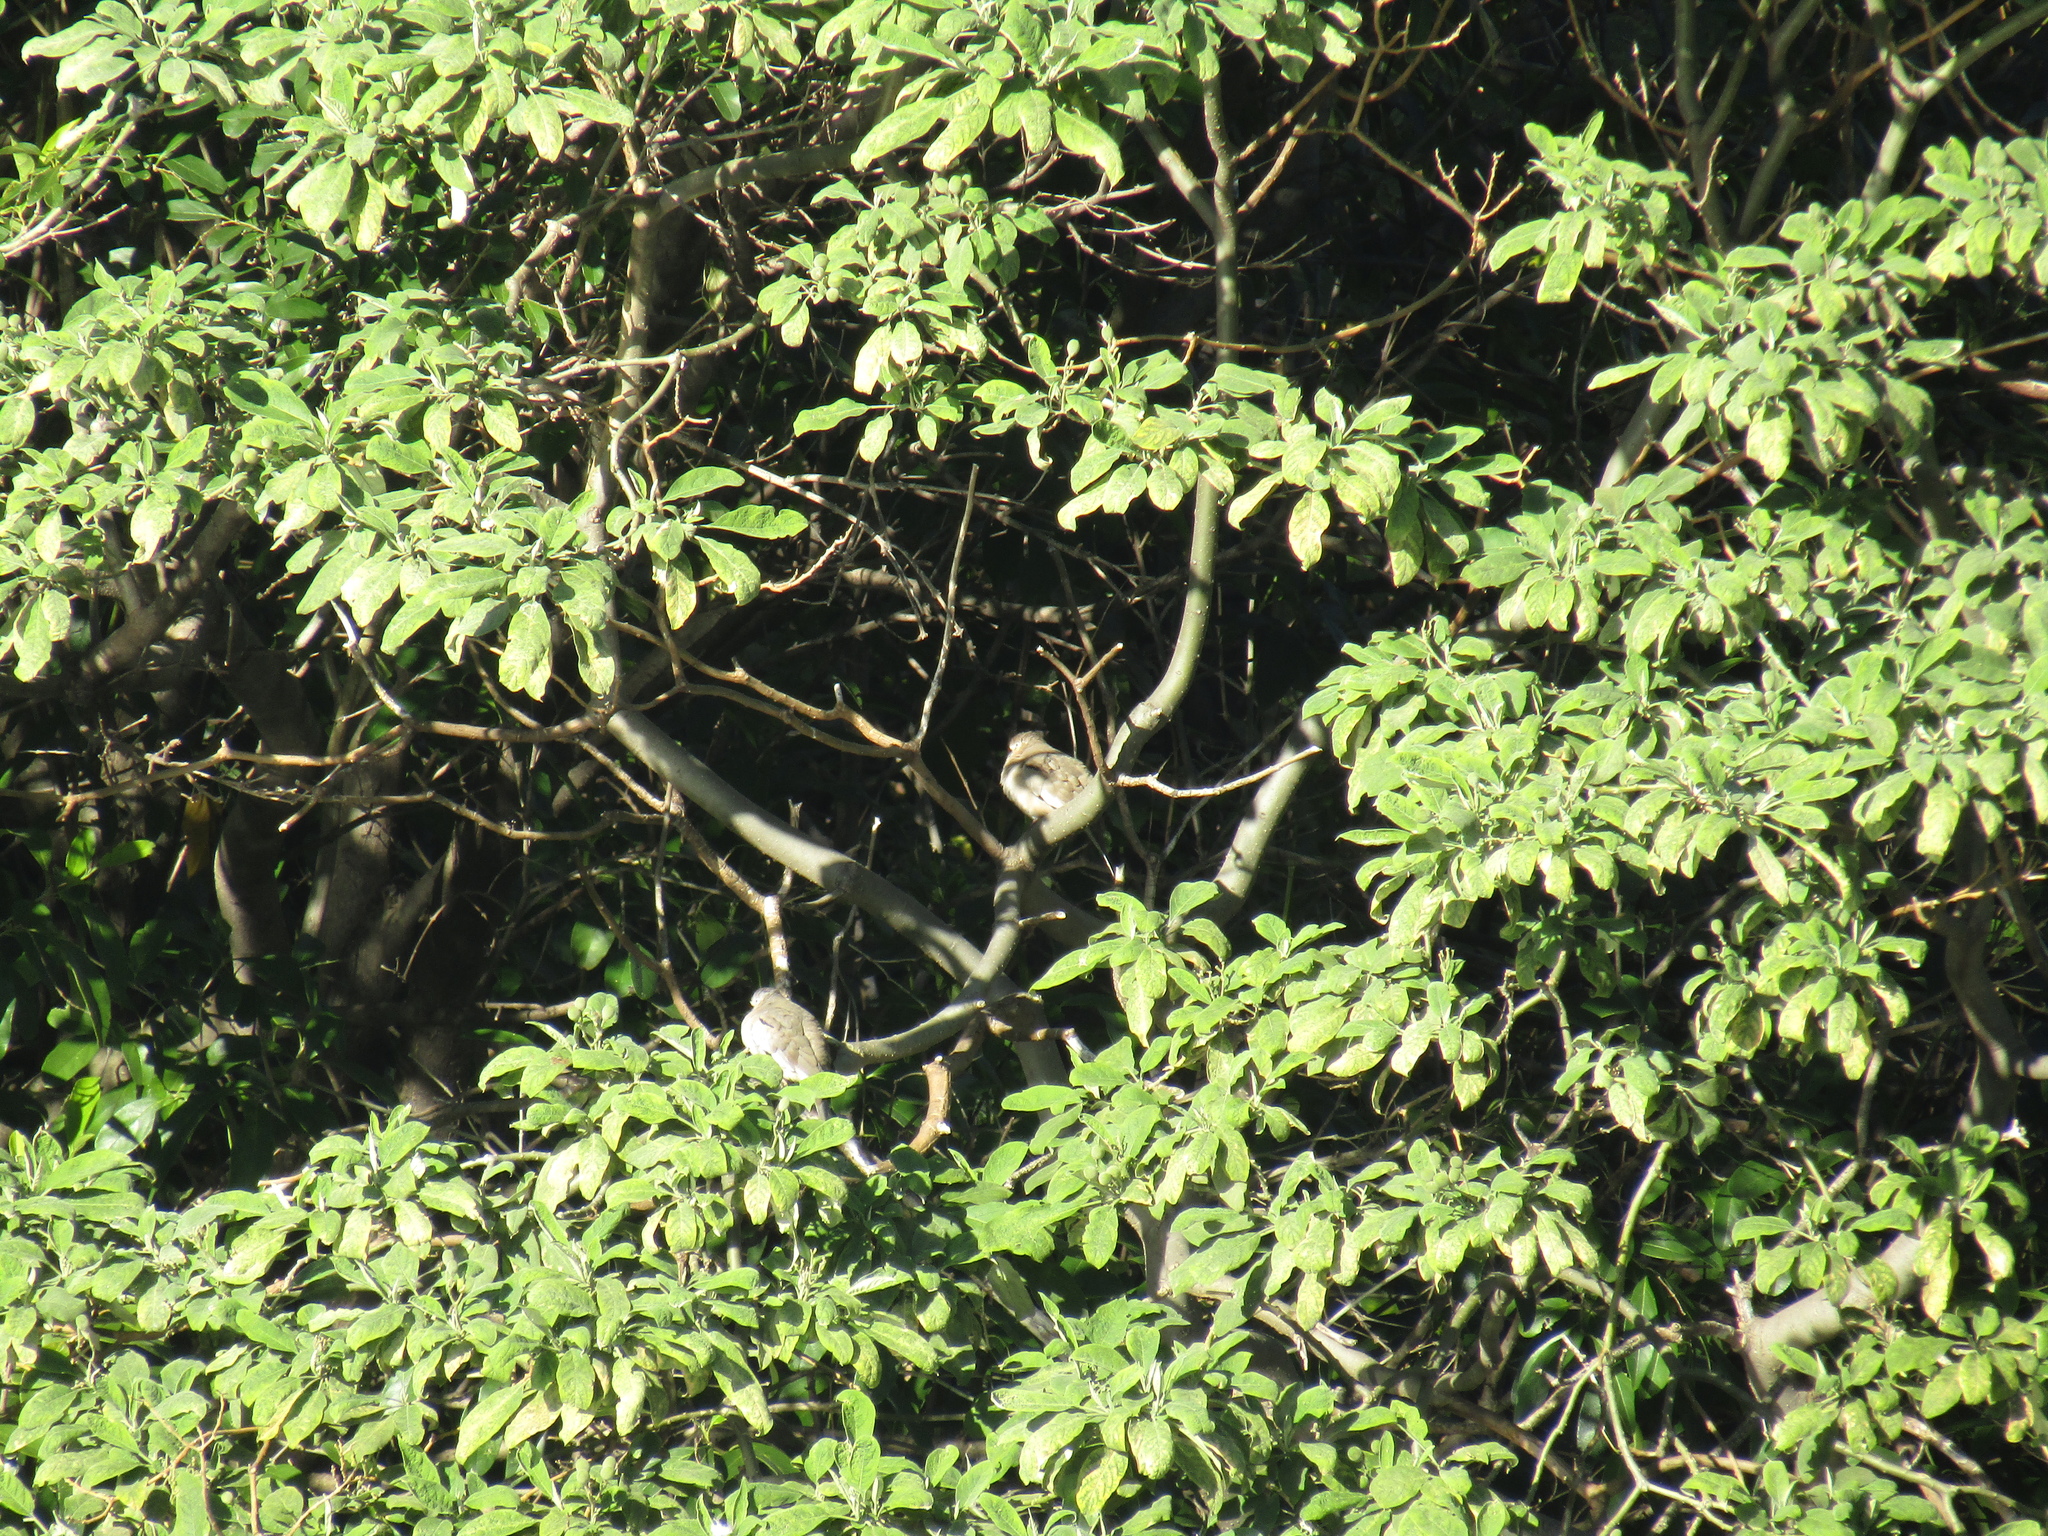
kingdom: Animalia
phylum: Chordata
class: Aves
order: Columbiformes
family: Columbidae
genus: Columbina
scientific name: Columbina picui
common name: Picui ground dove
